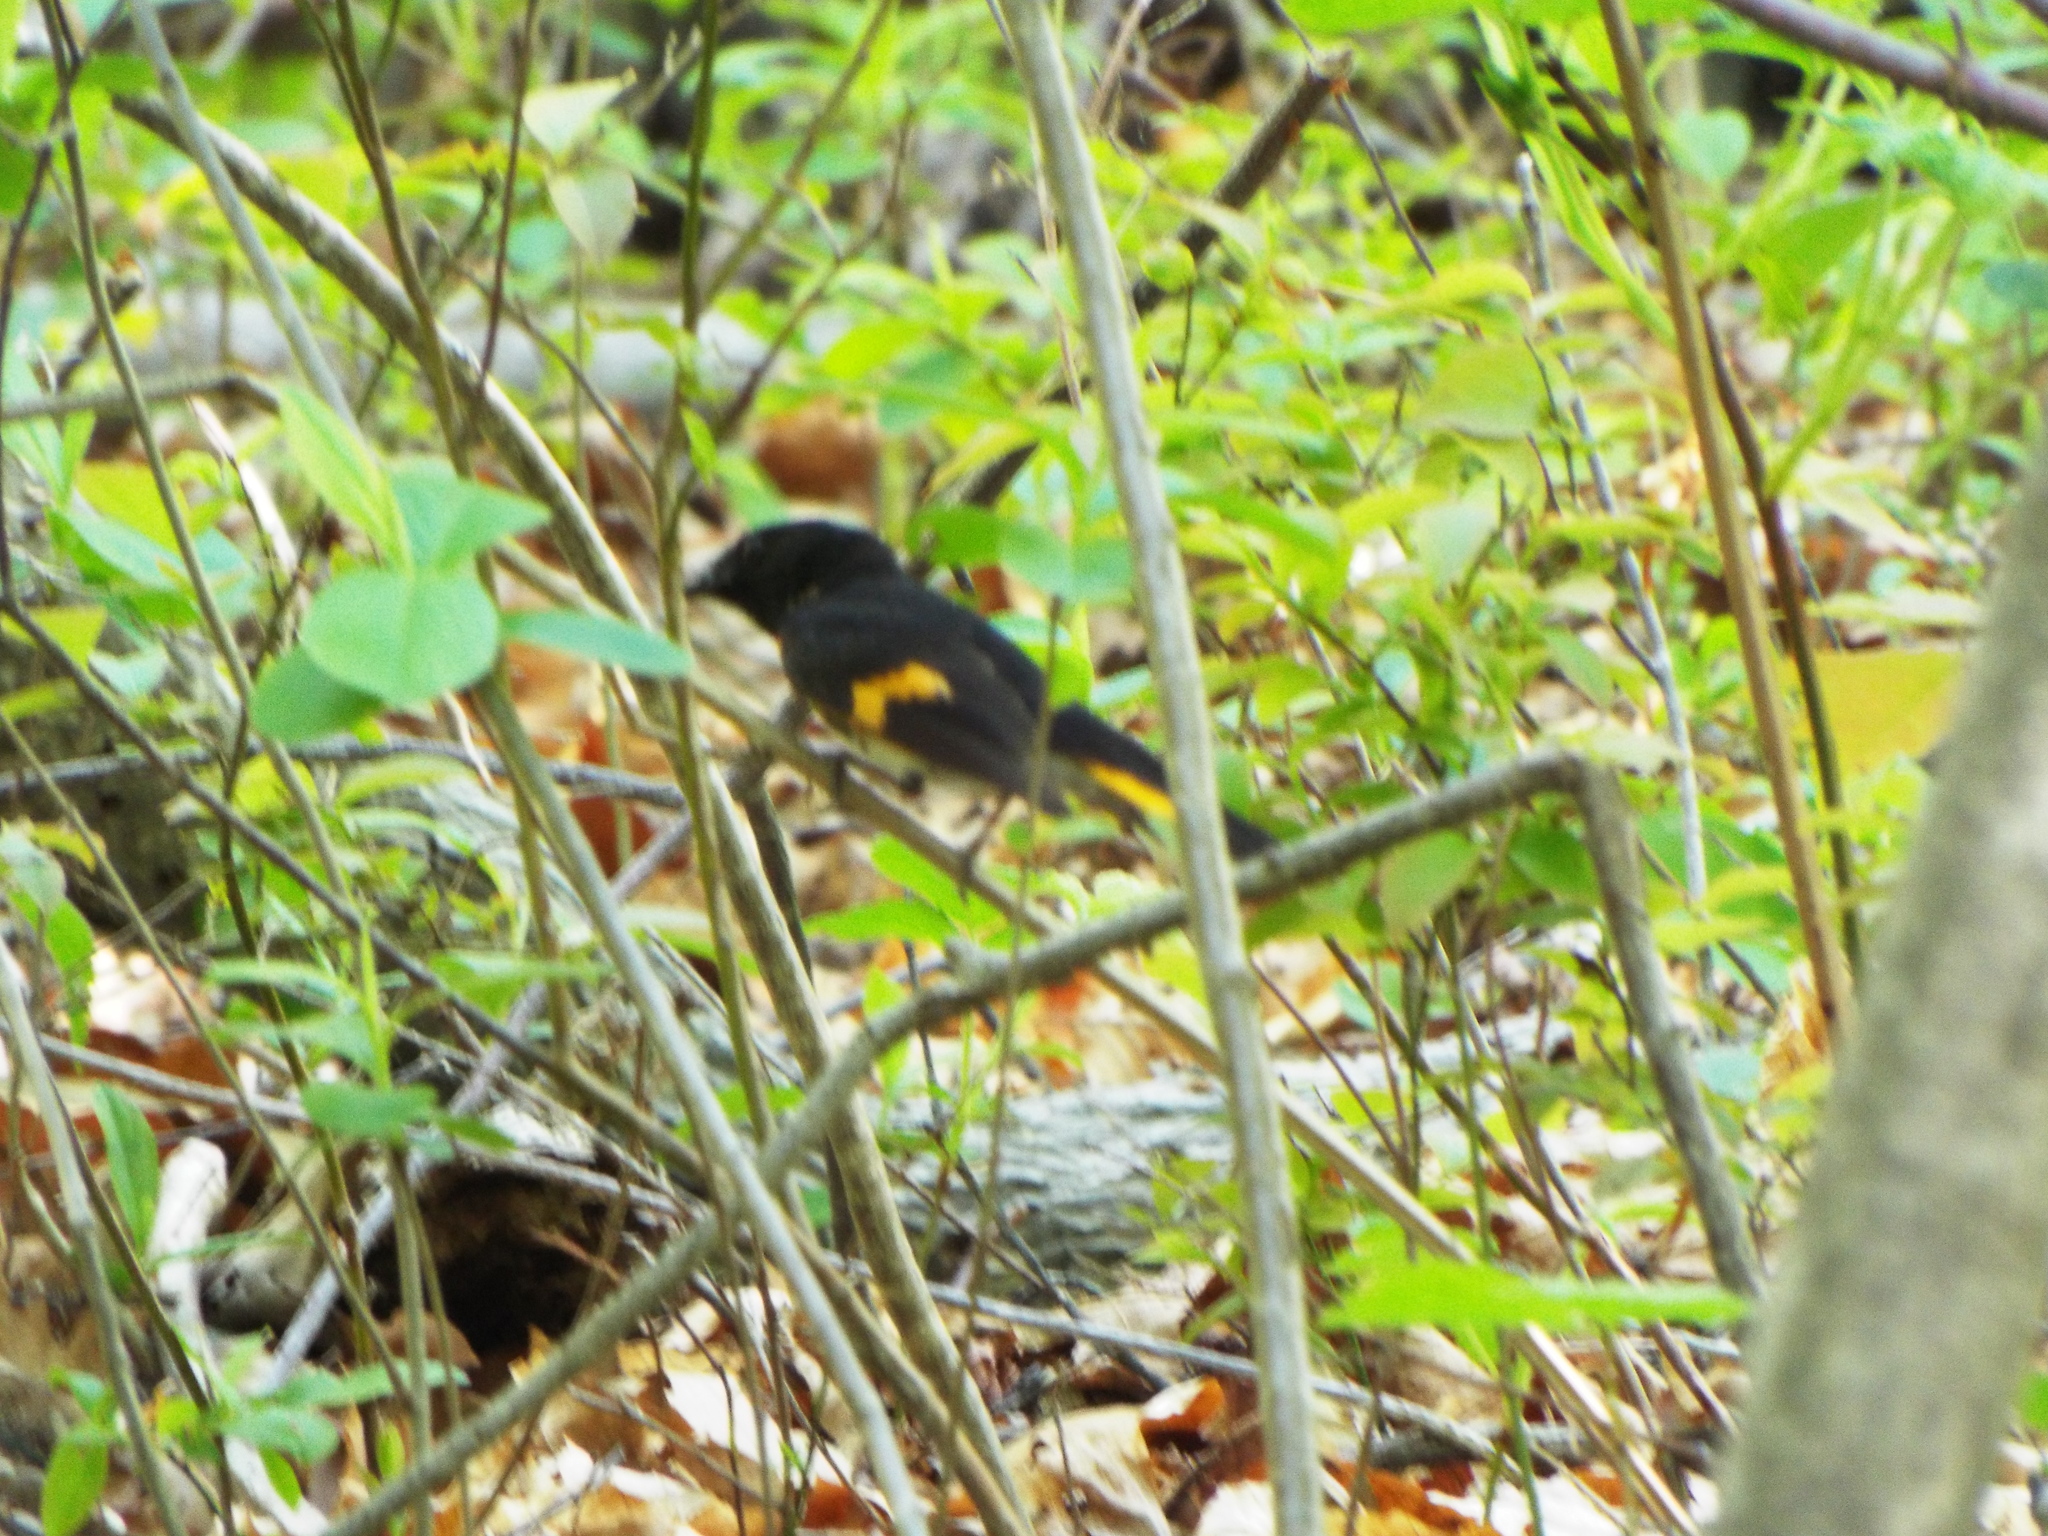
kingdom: Animalia
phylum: Chordata
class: Aves
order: Passeriformes
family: Parulidae
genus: Setophaga
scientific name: Setophaga ruticilla
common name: American redstart
